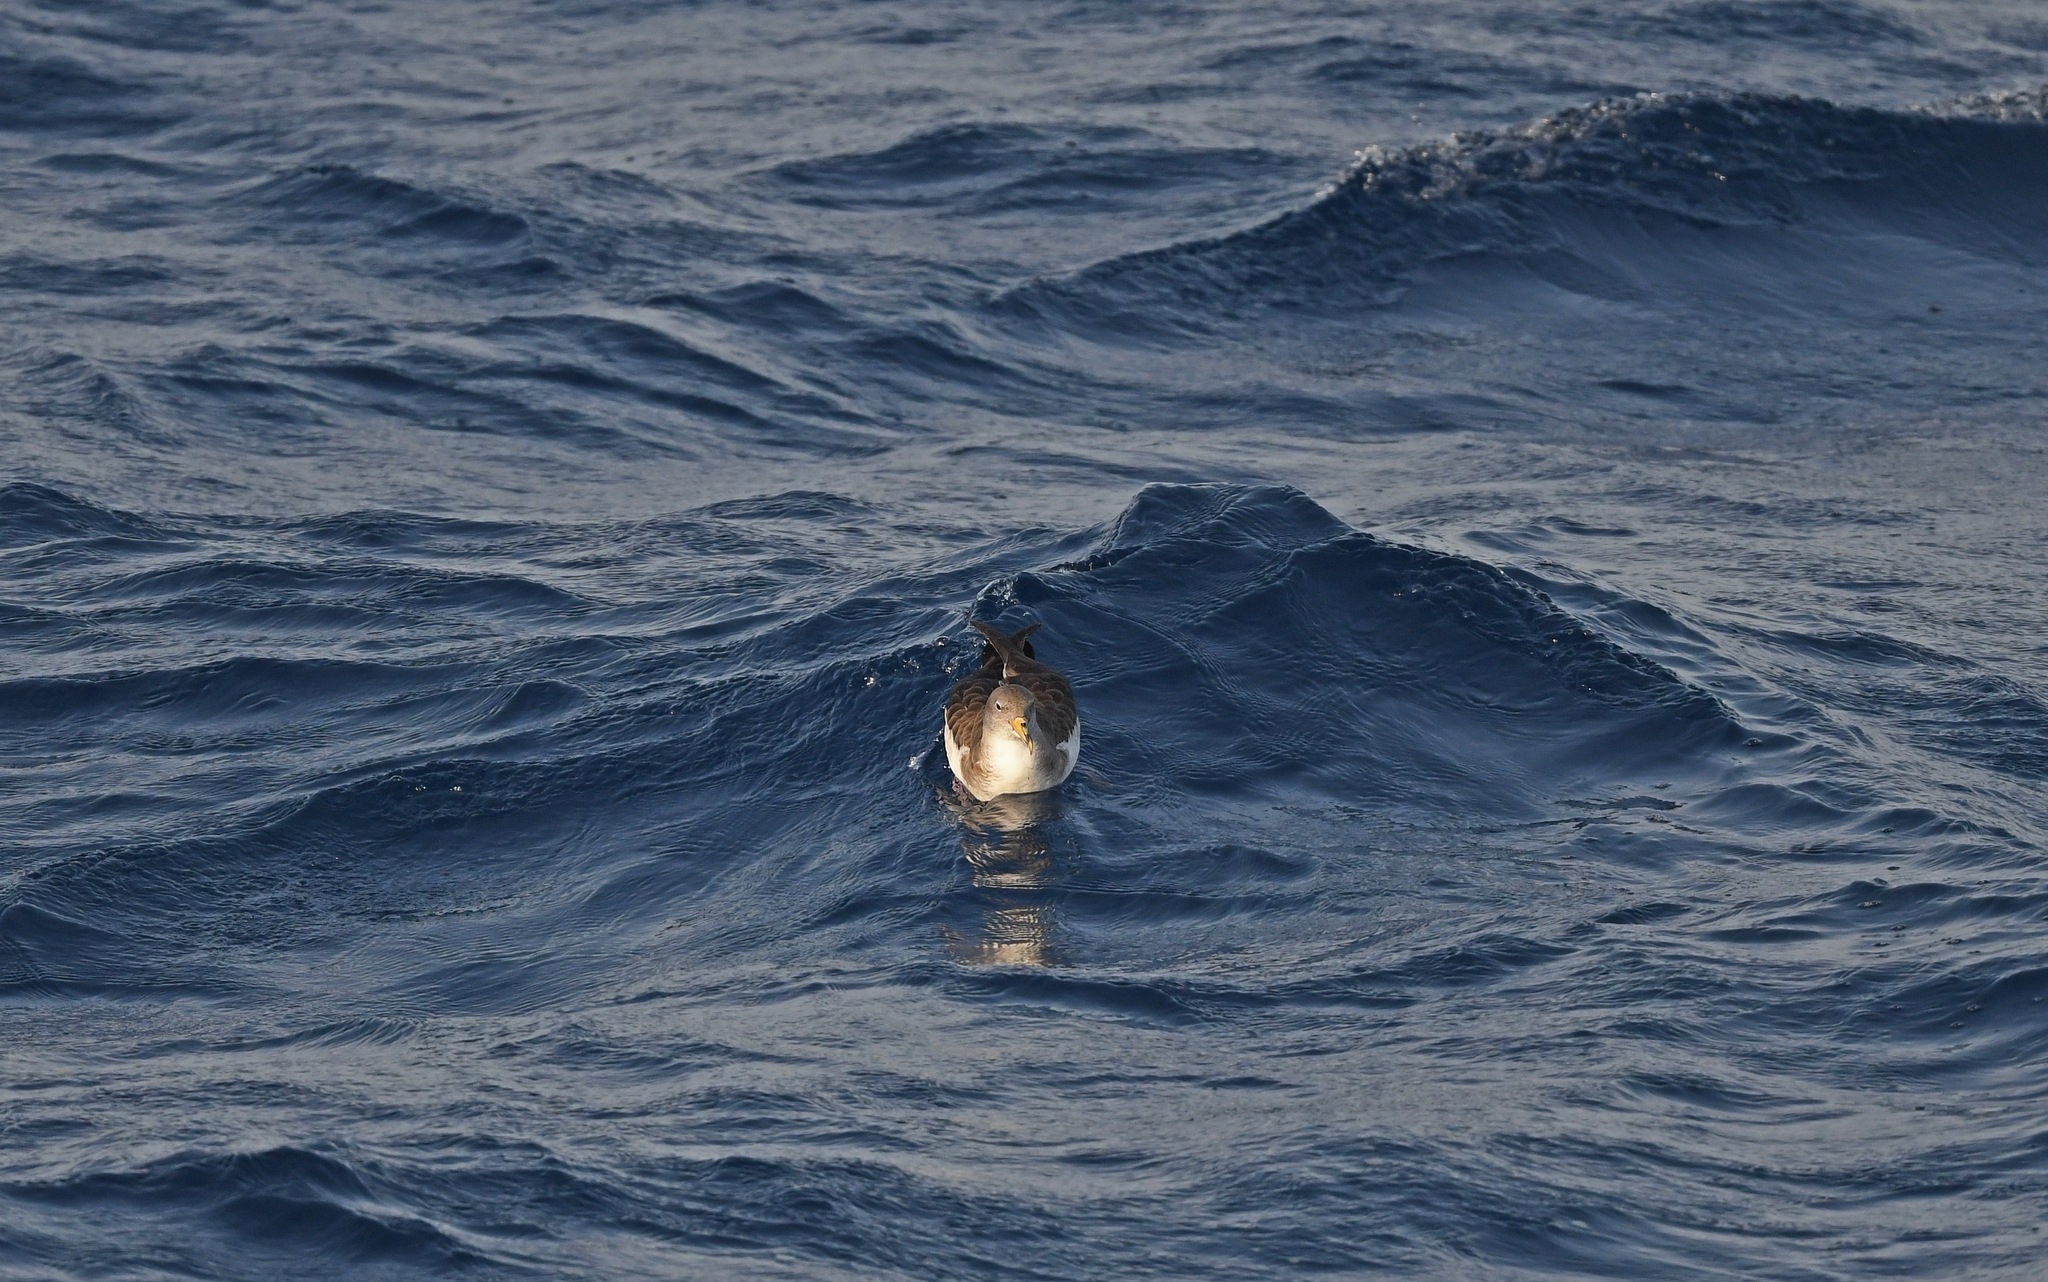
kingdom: Animalia
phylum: Chordata
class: Aves
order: Procellariiformes
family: Procellariidae
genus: Calonectris
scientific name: Calonectris diomedea
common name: Cory's shearwater
